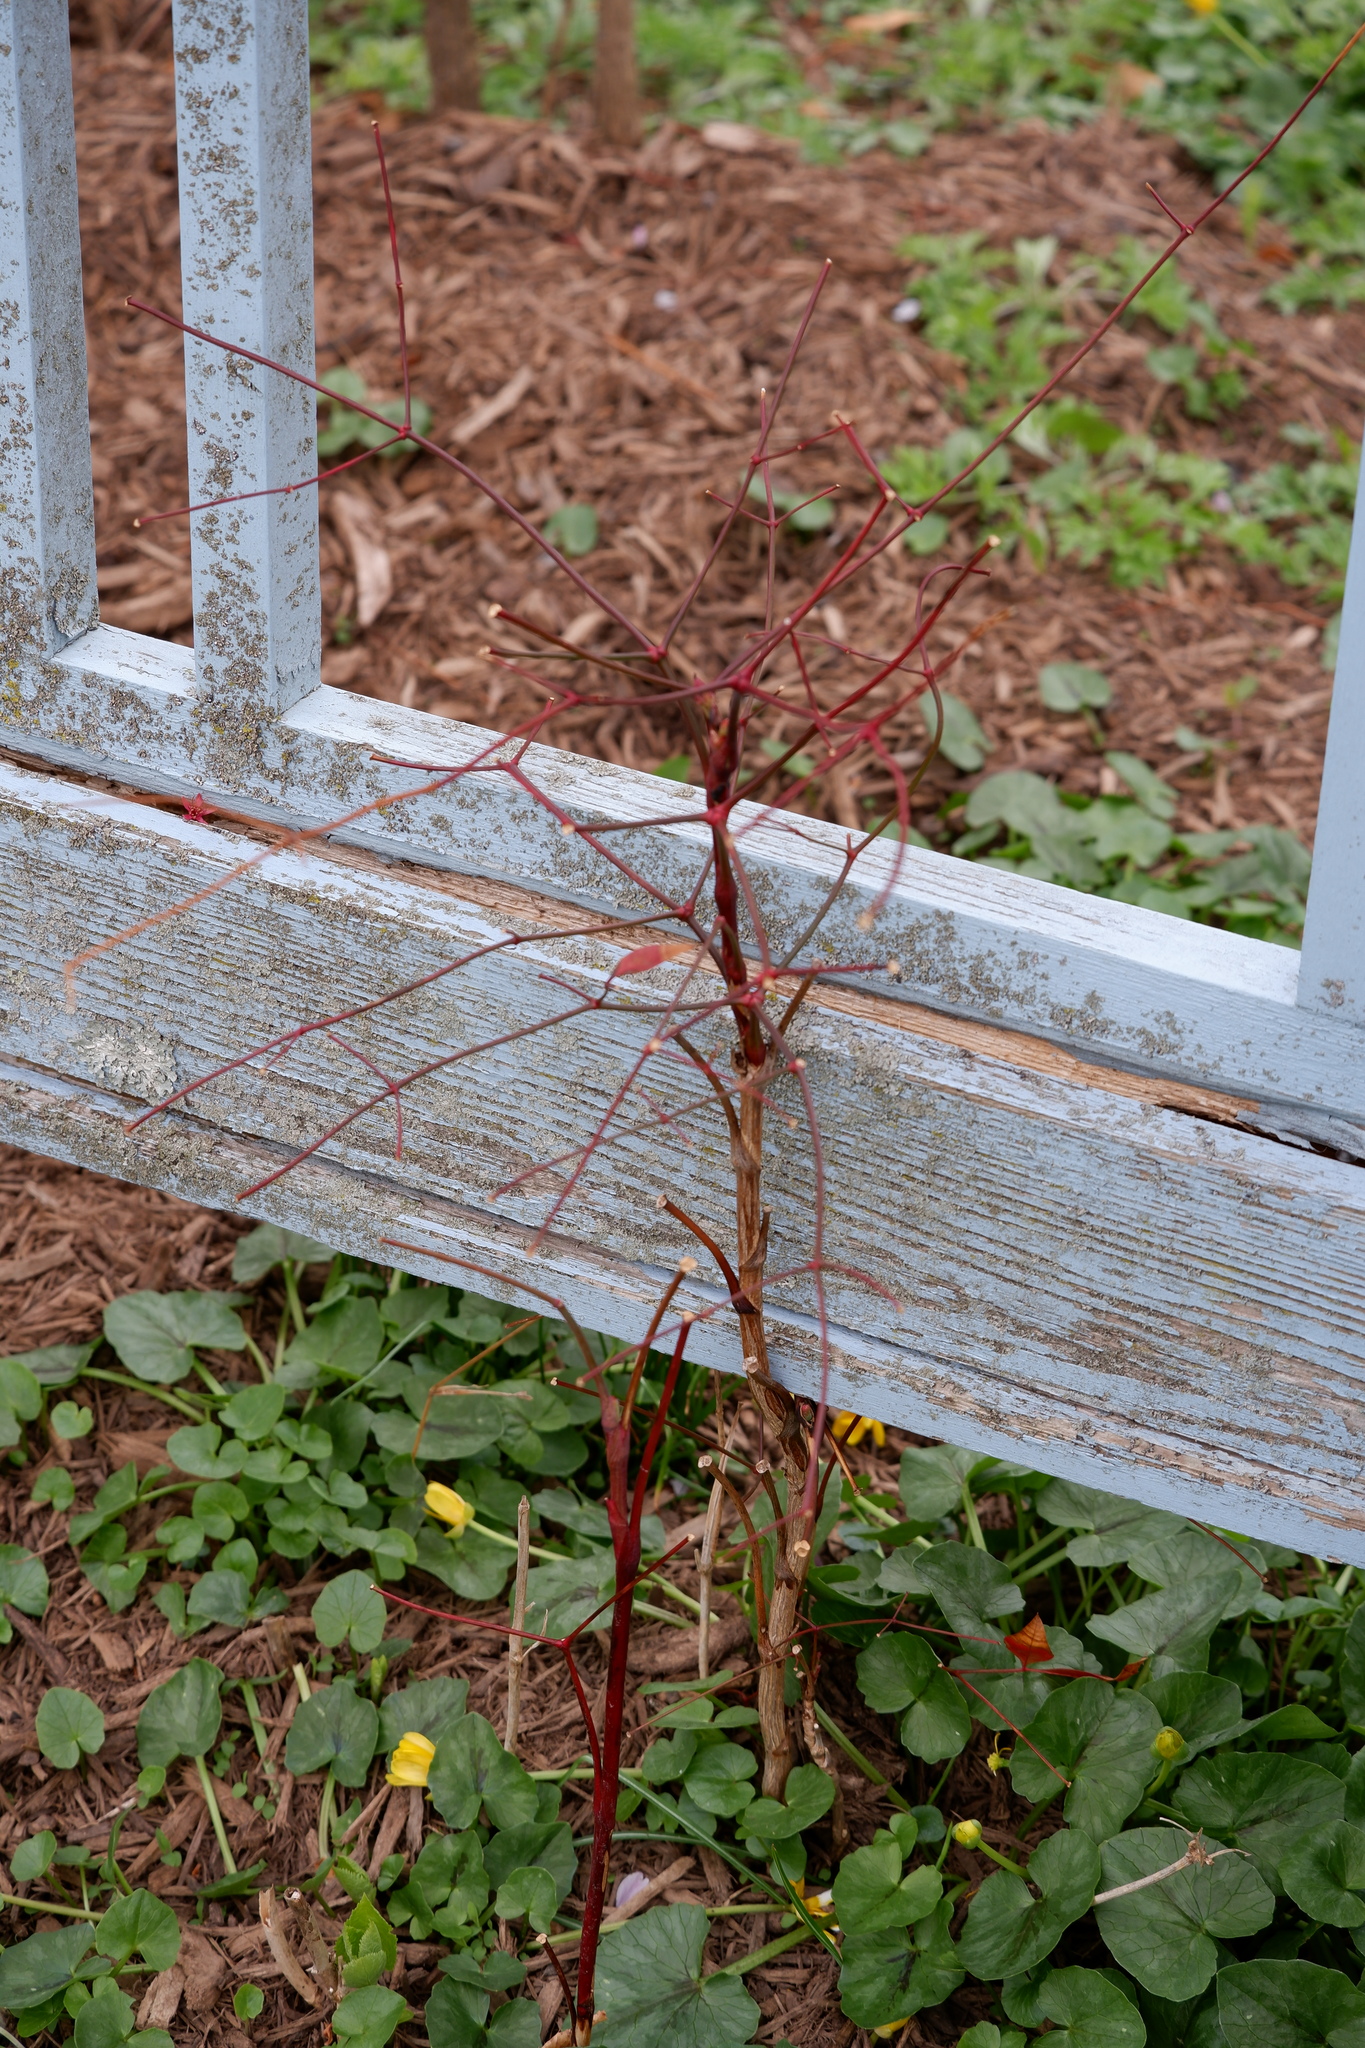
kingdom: Plantae
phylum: Tracheophyta
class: Magnoliopsida
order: Ranunculales
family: Berberidaceae
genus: Nandina
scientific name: Nandina domestica
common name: Sacred bamboo
